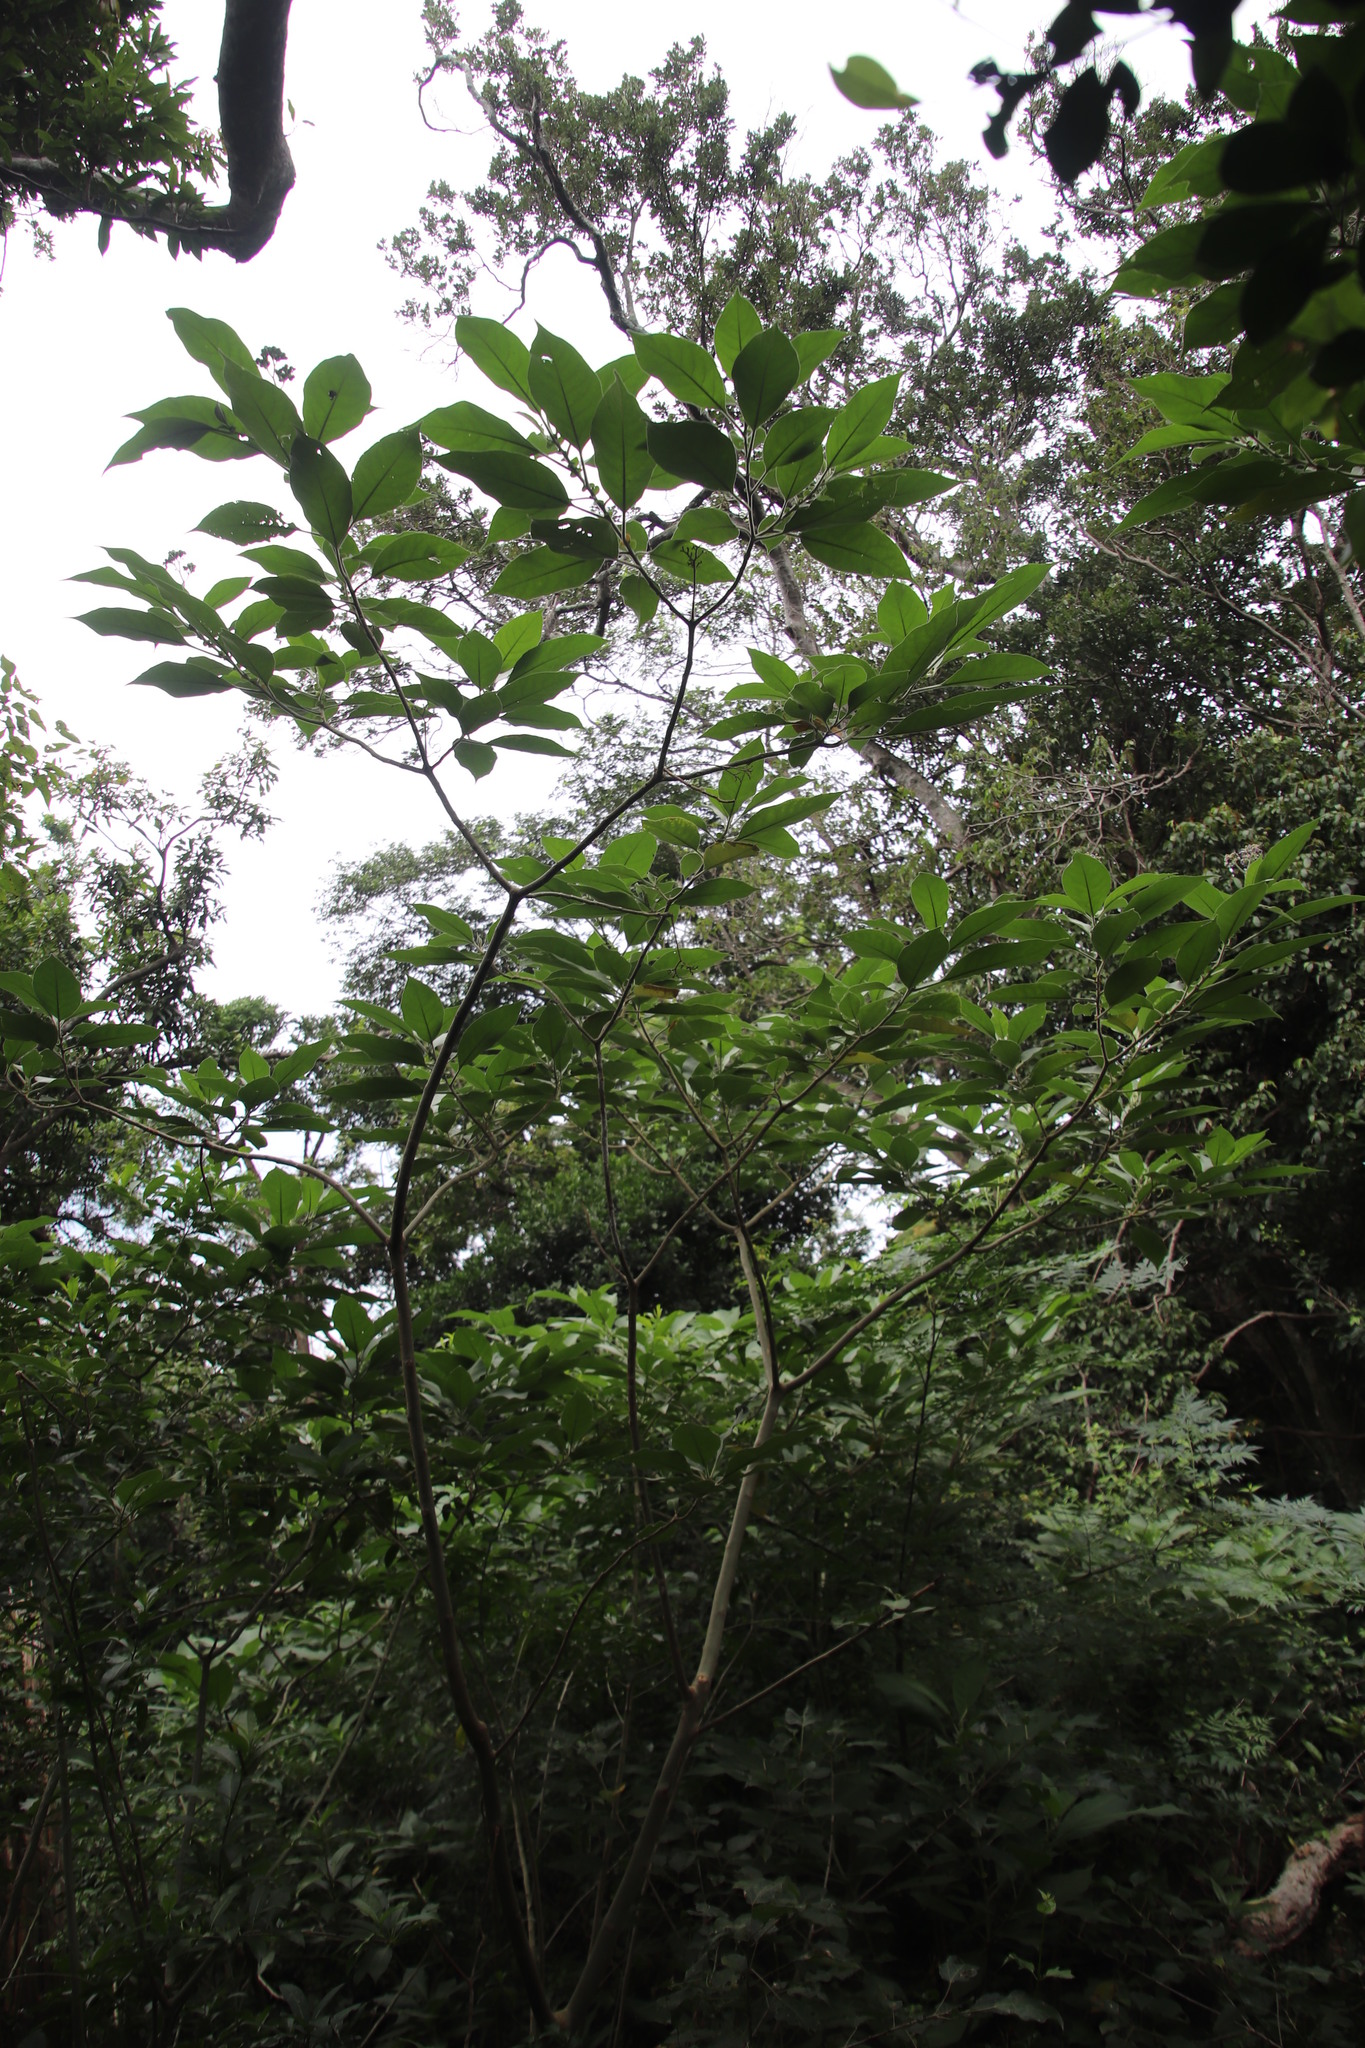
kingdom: Plantae
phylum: Tracheophyta
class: Magnoliopsida
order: Solanales
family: Solanaceae
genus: Solanum
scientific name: Solanum mauritianum
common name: Earleaf nightshade
